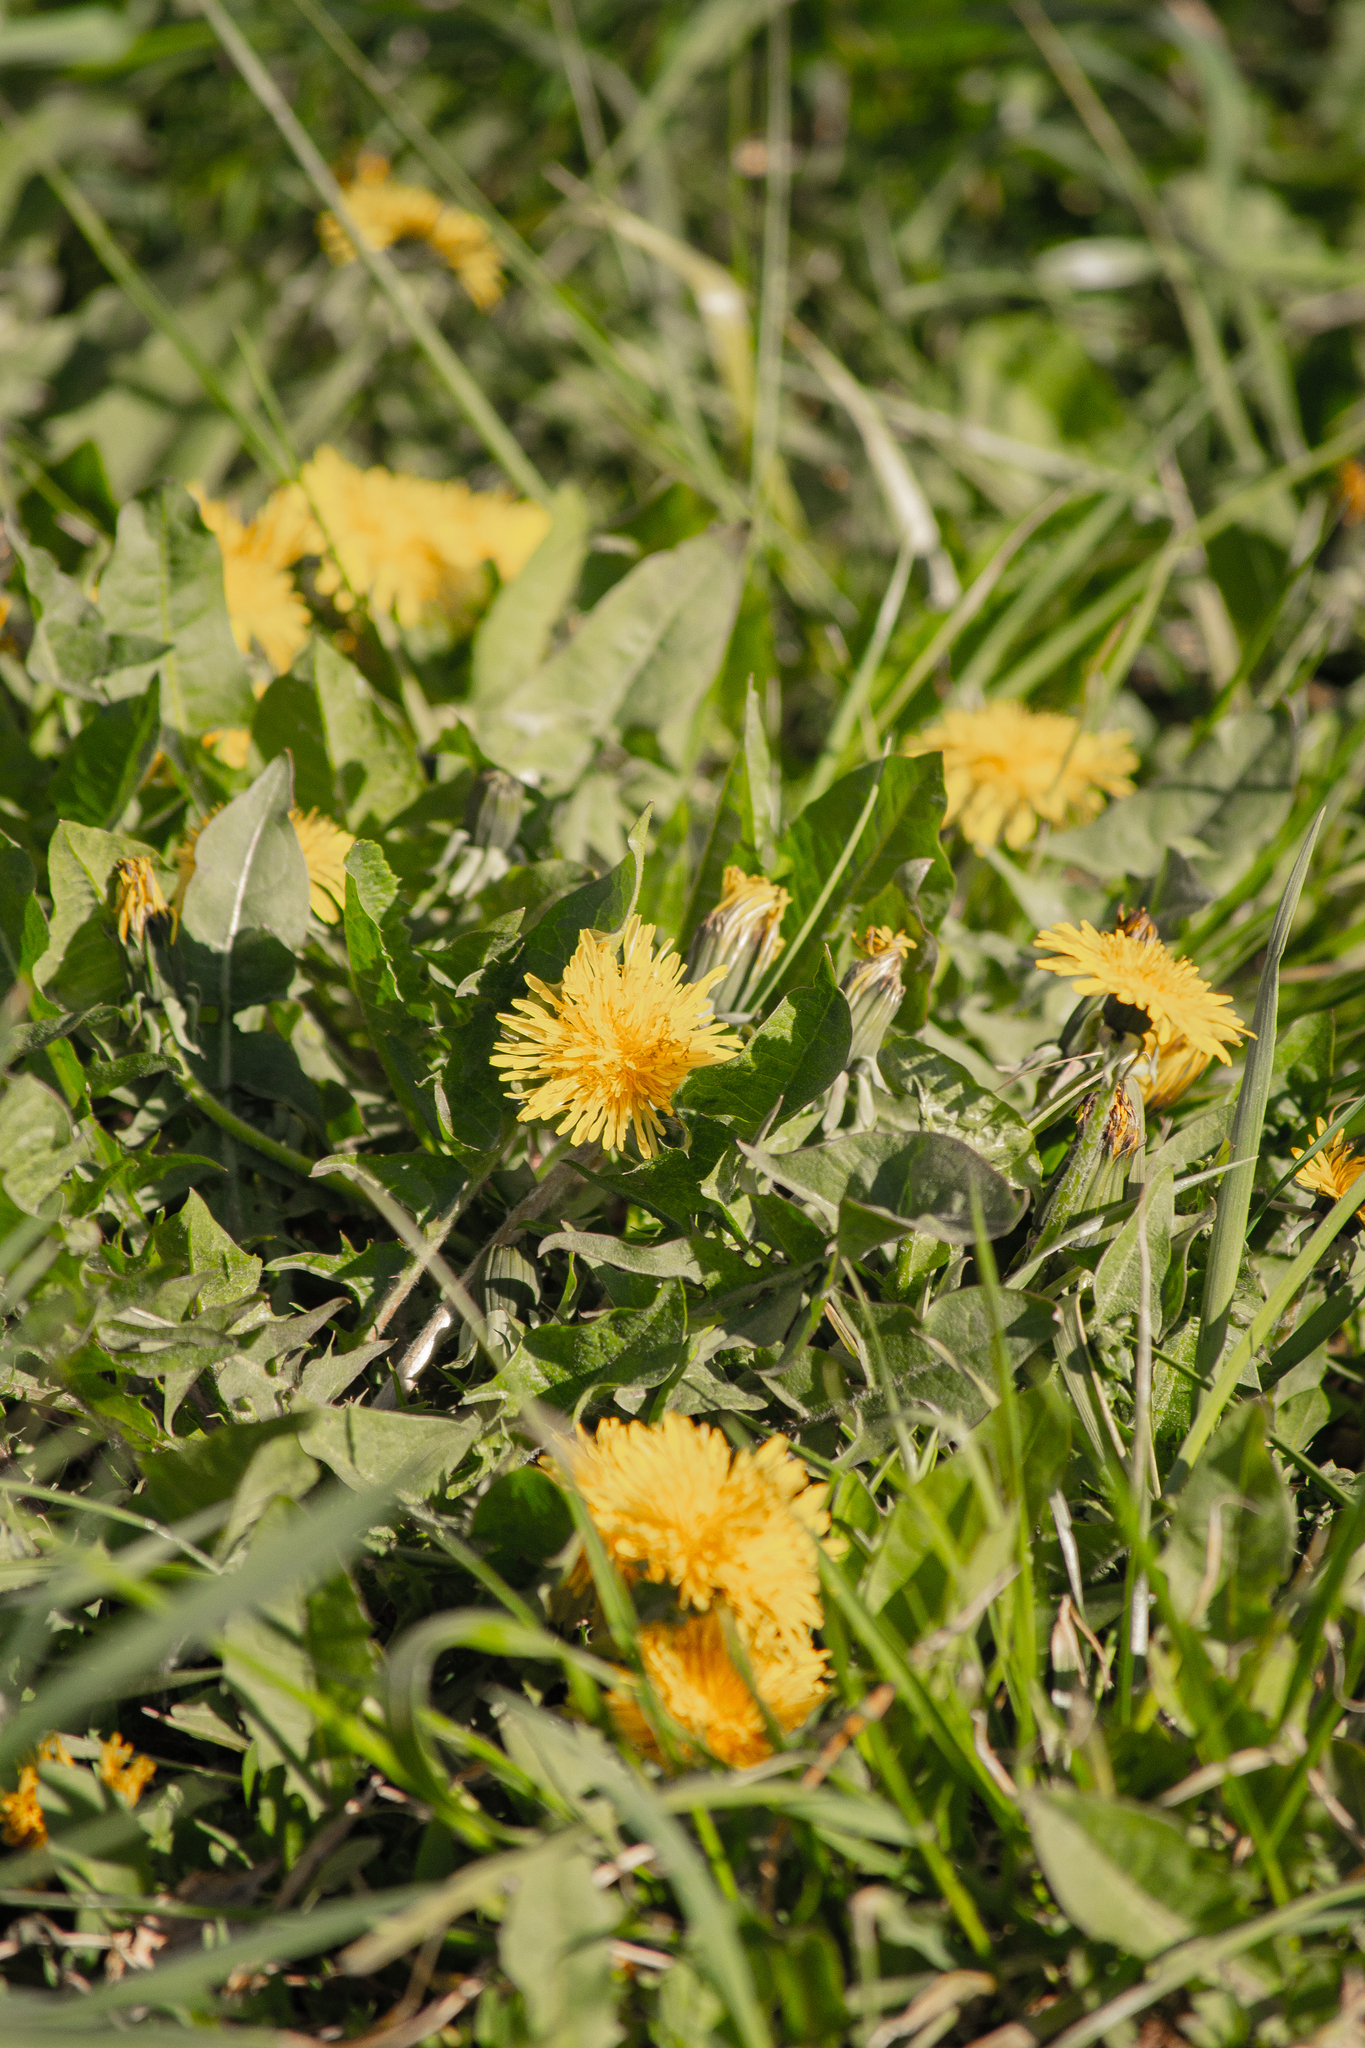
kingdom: Plantae
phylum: Tracheophyta
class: Magnoliopsida
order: Asterales
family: Asteraceae
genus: Taraxacum
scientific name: Taraxacum officinale
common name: Common dandelion
